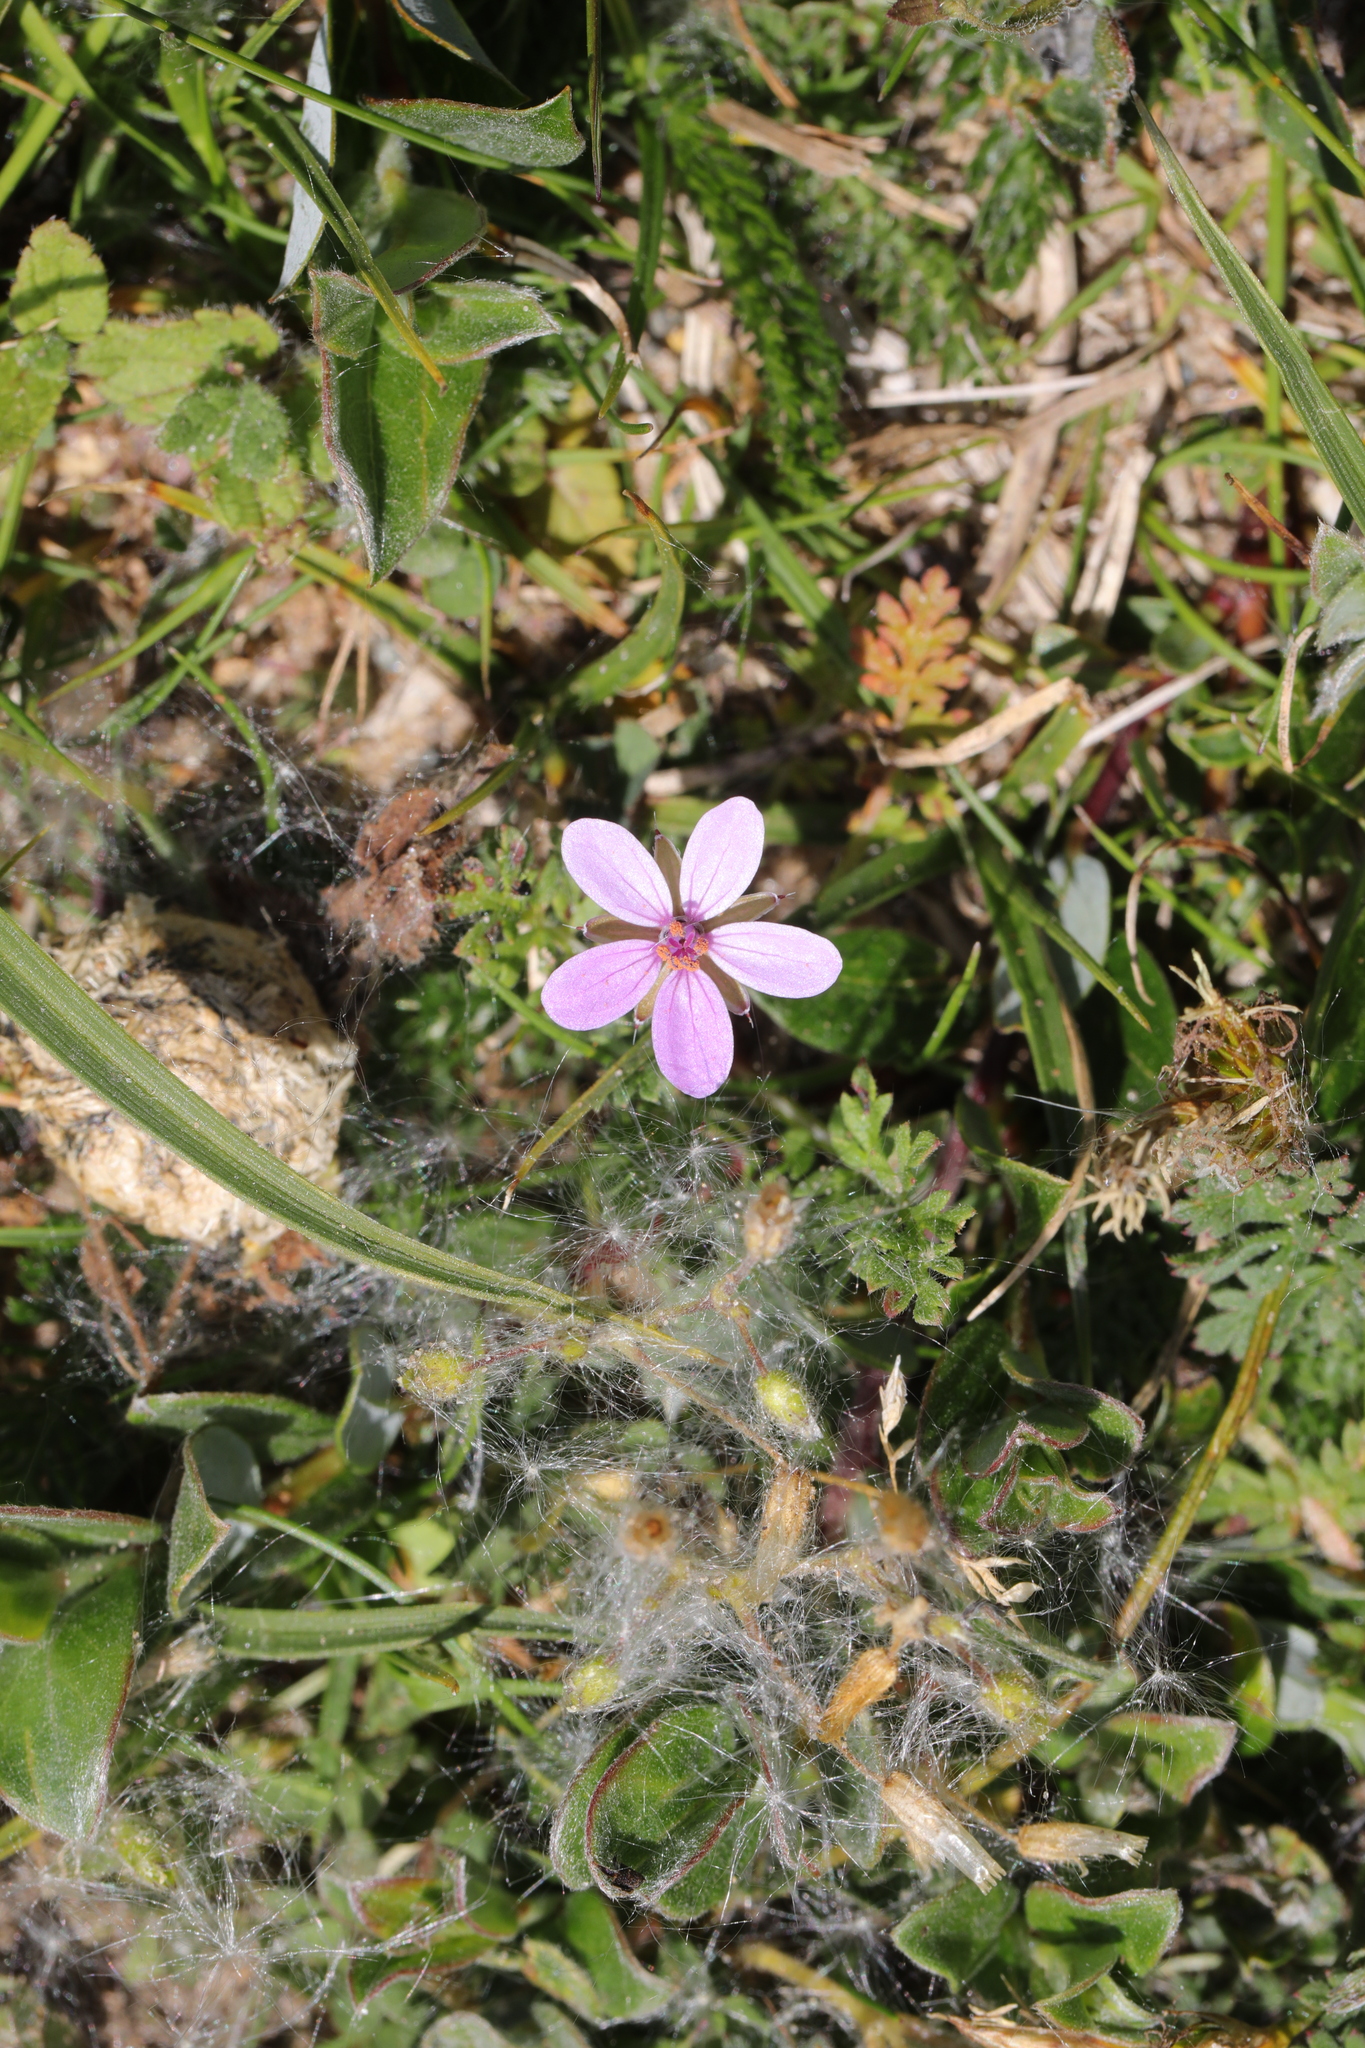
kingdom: Plantae
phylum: Tracheophyta
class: Magnoliopsida
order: Geraniales
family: Geraniaceae
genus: Erodium
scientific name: Erodium cicutarium
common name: Common stork's-bill
